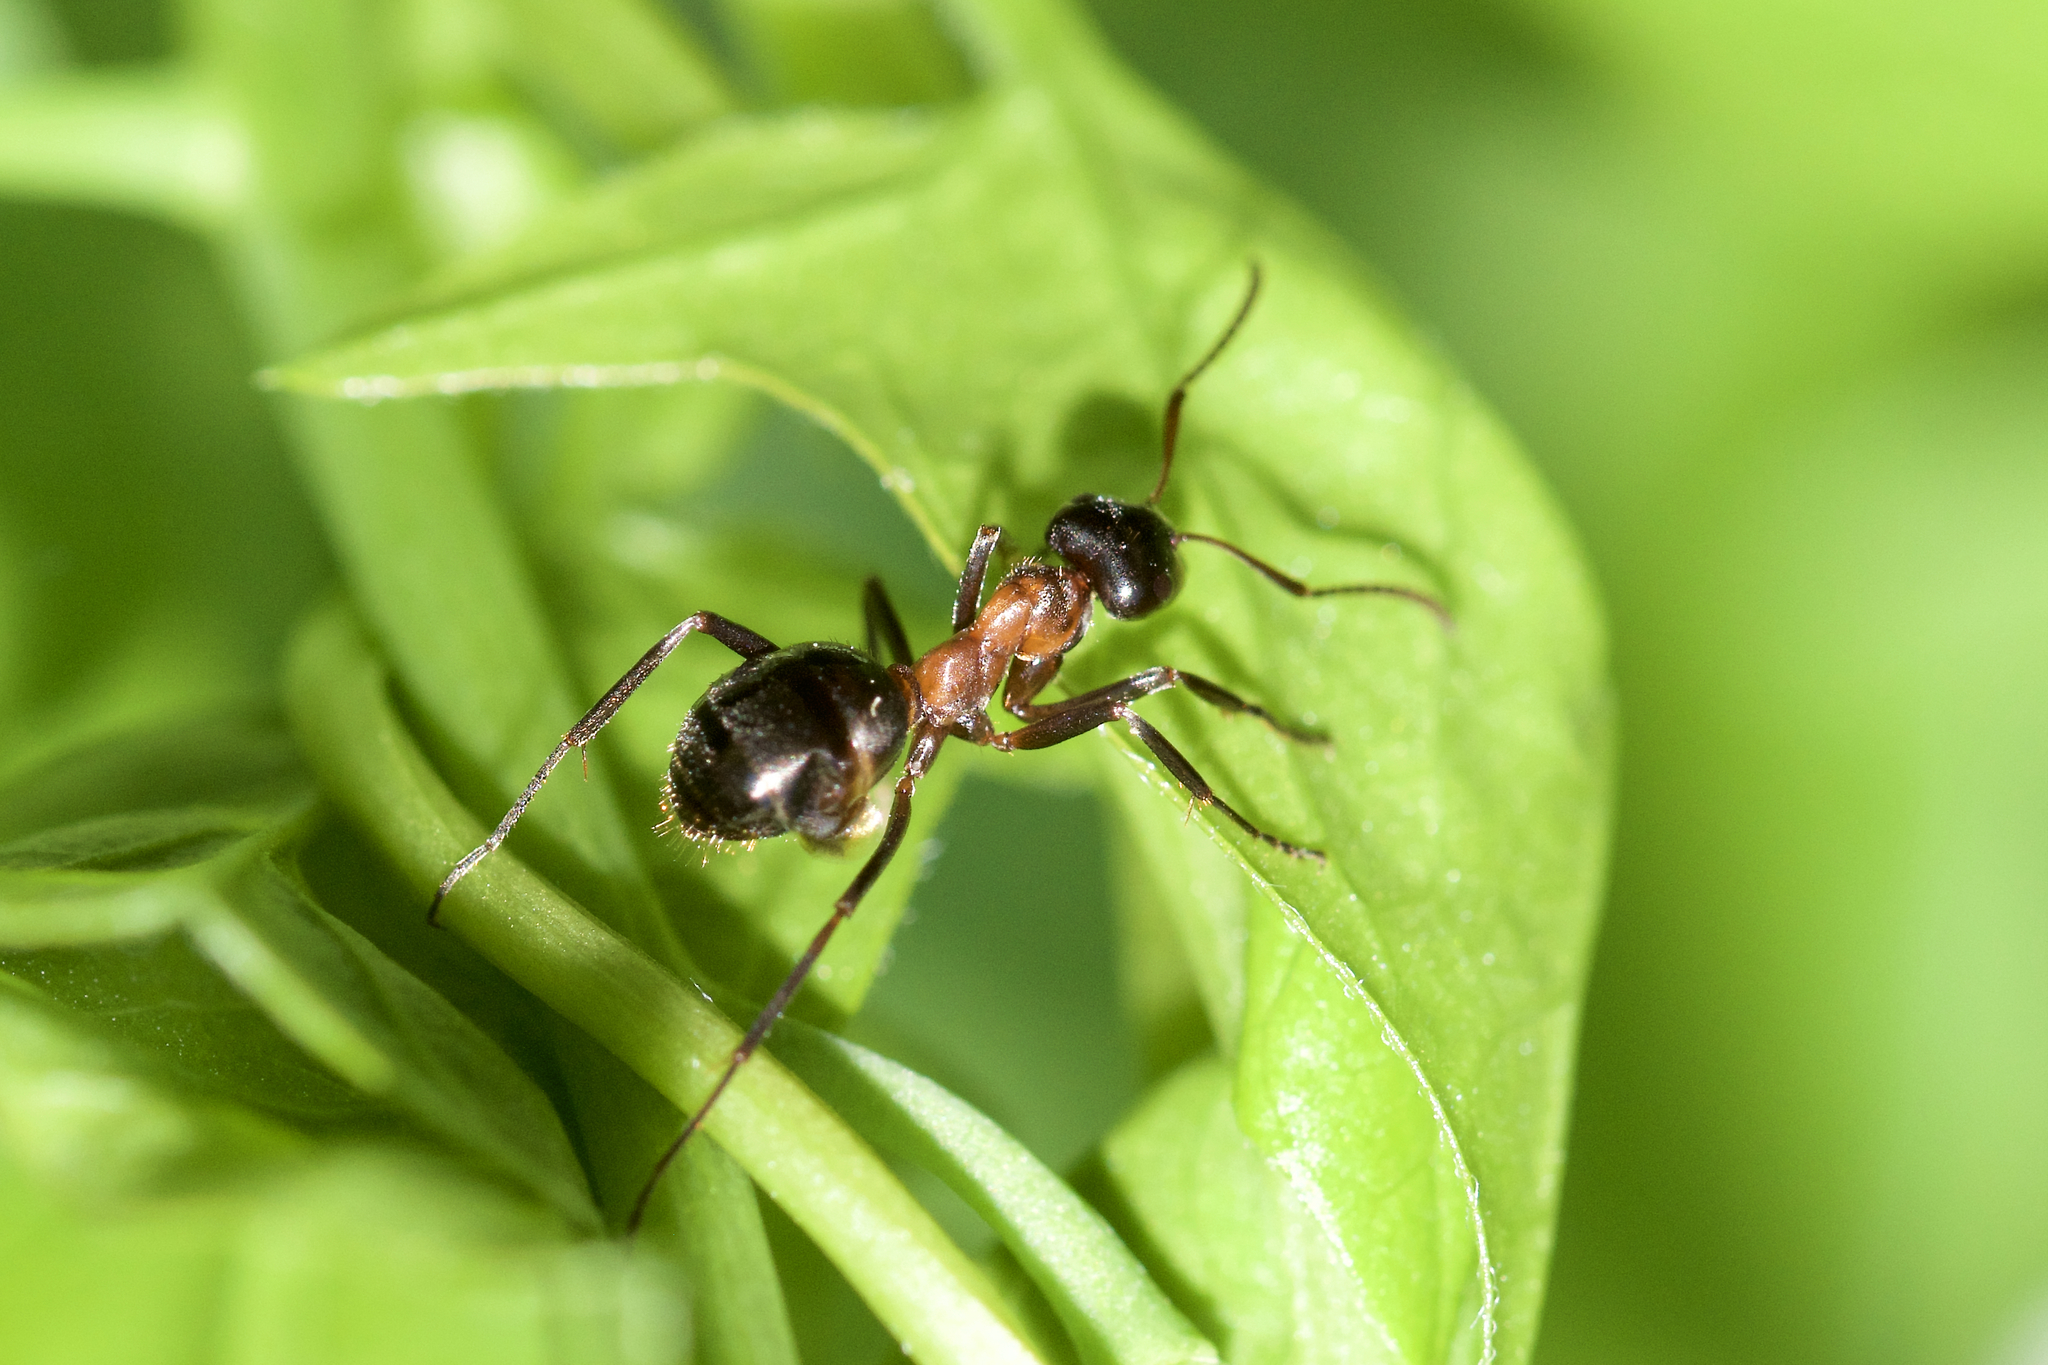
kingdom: Animalia
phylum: Arthropoda
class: Insecta
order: Hymenoptera
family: Formicidae
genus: Formica
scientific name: Formica ulkei
